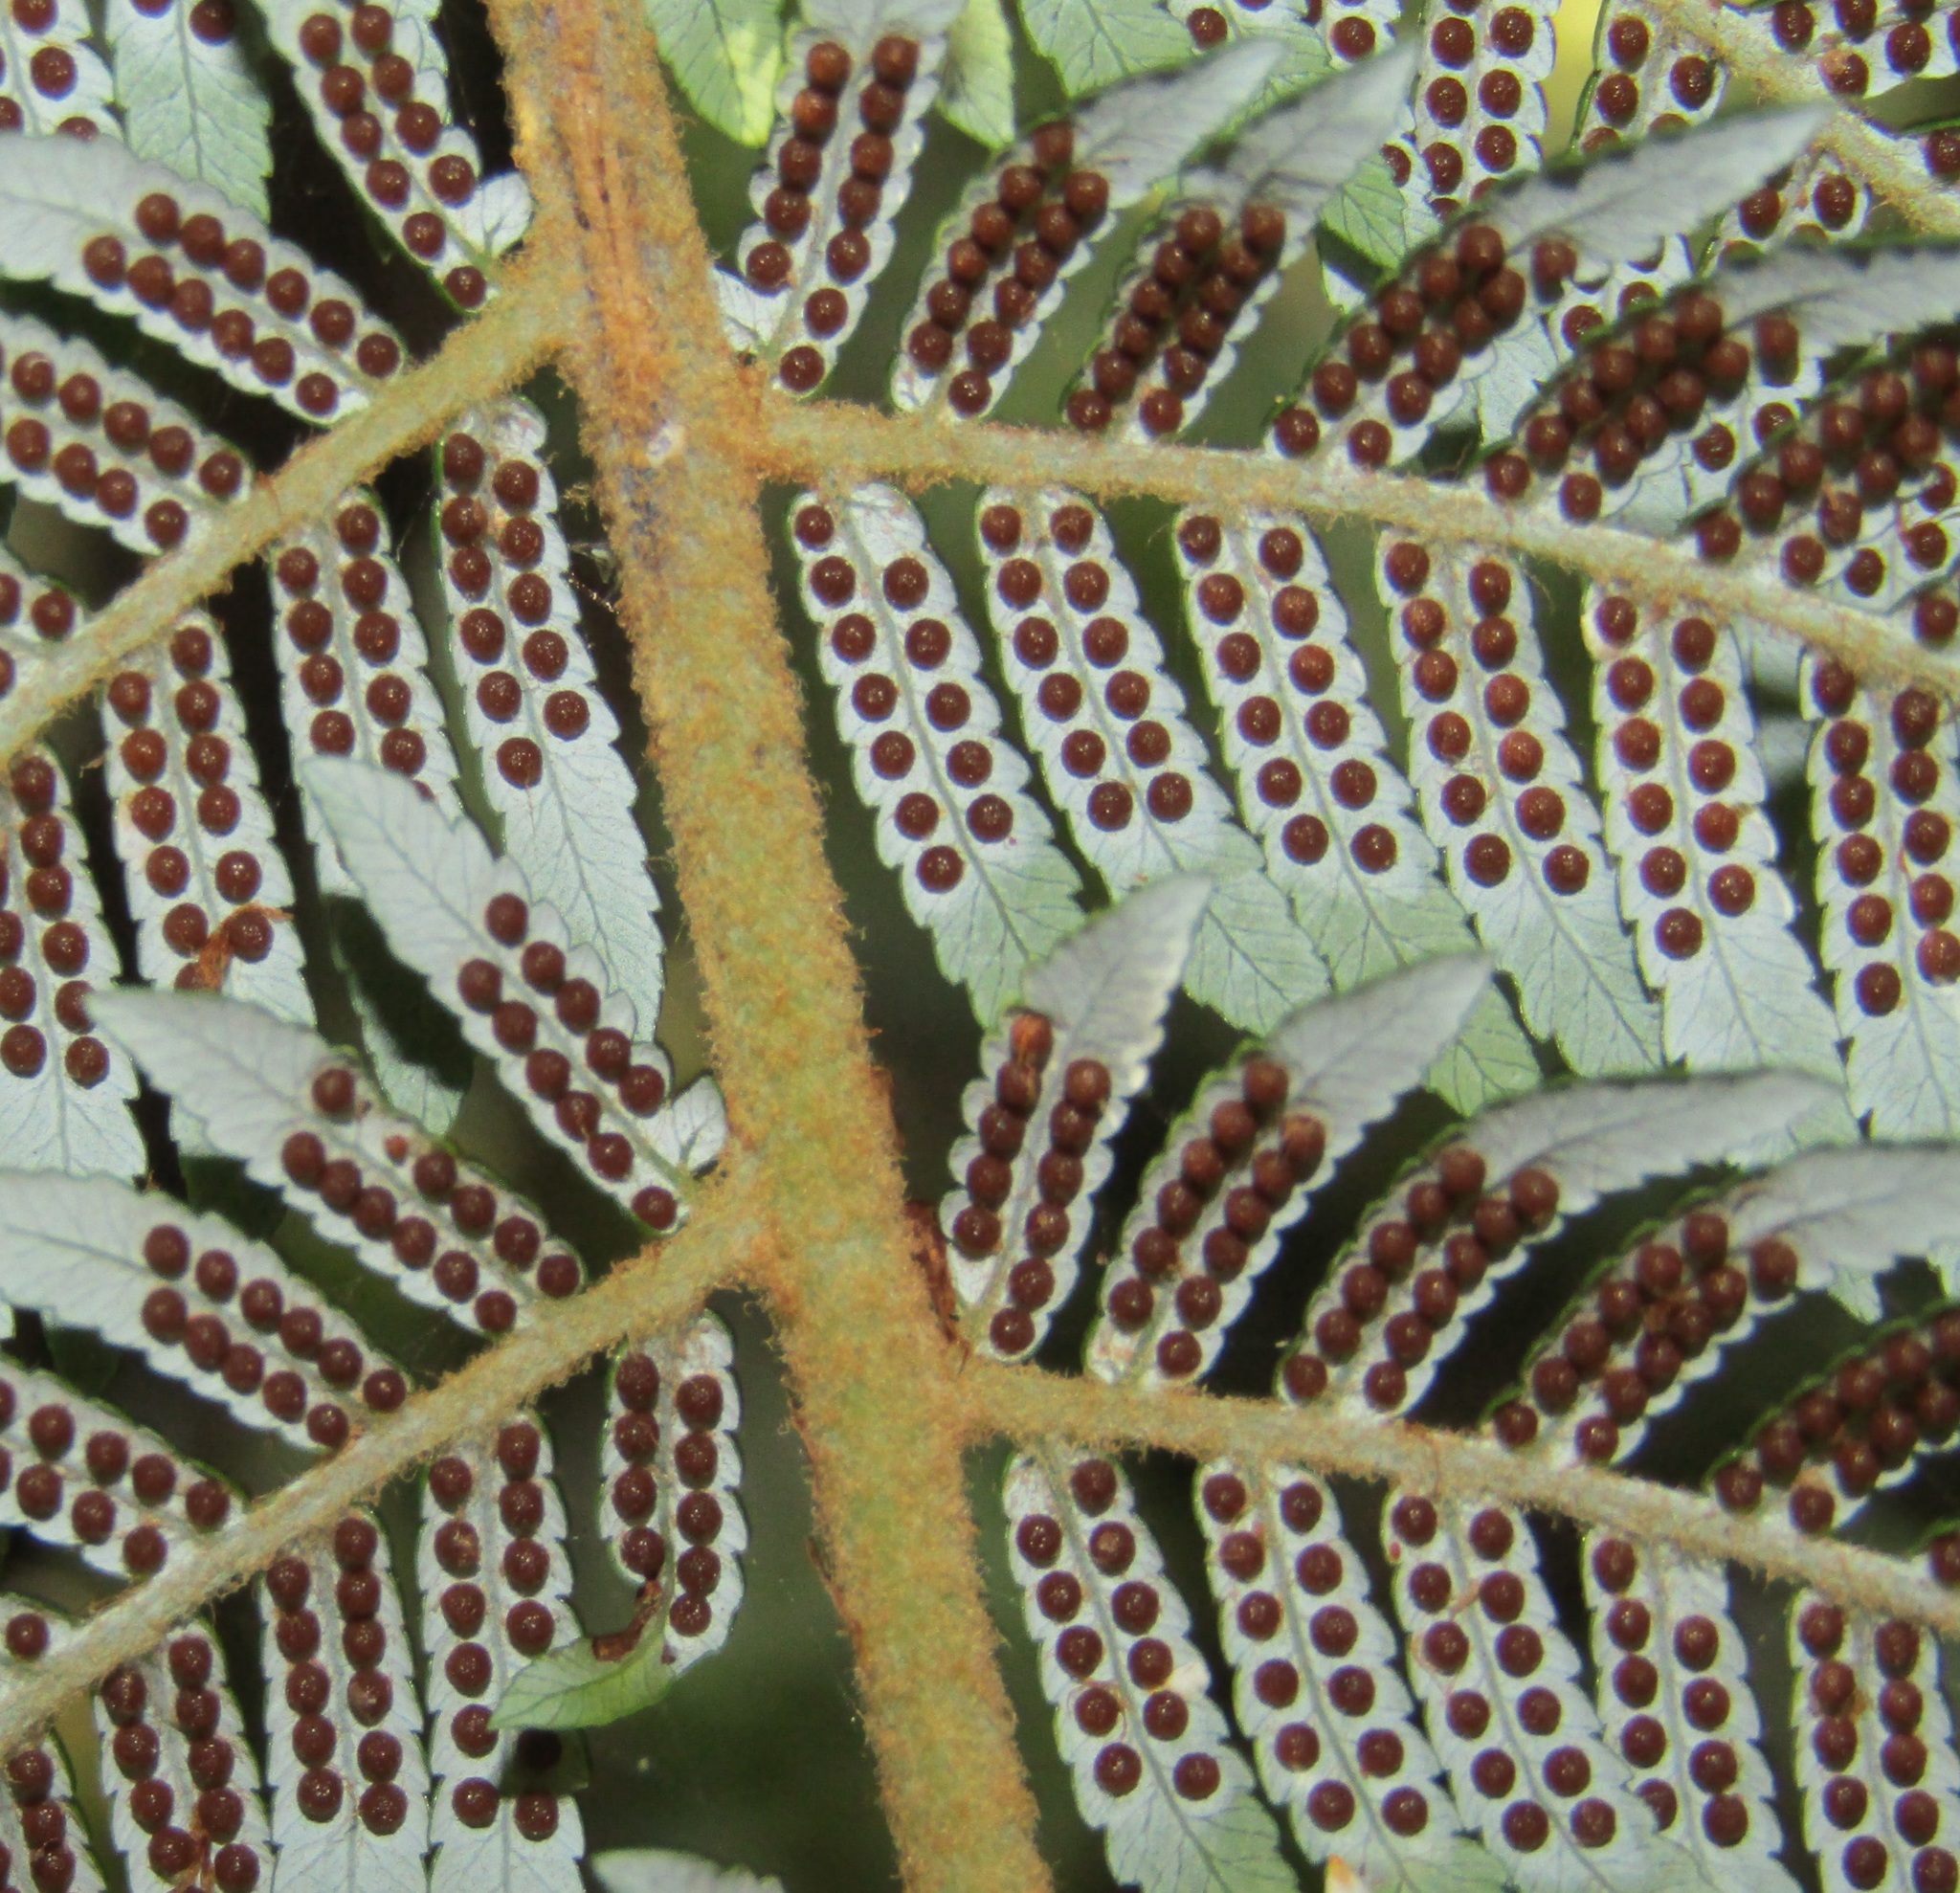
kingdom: Plantae
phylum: Tracheophyta
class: Polypodiopsida
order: Cyatheales
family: Cyatheaceae
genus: Alsophila
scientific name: Alsophila dealbata
